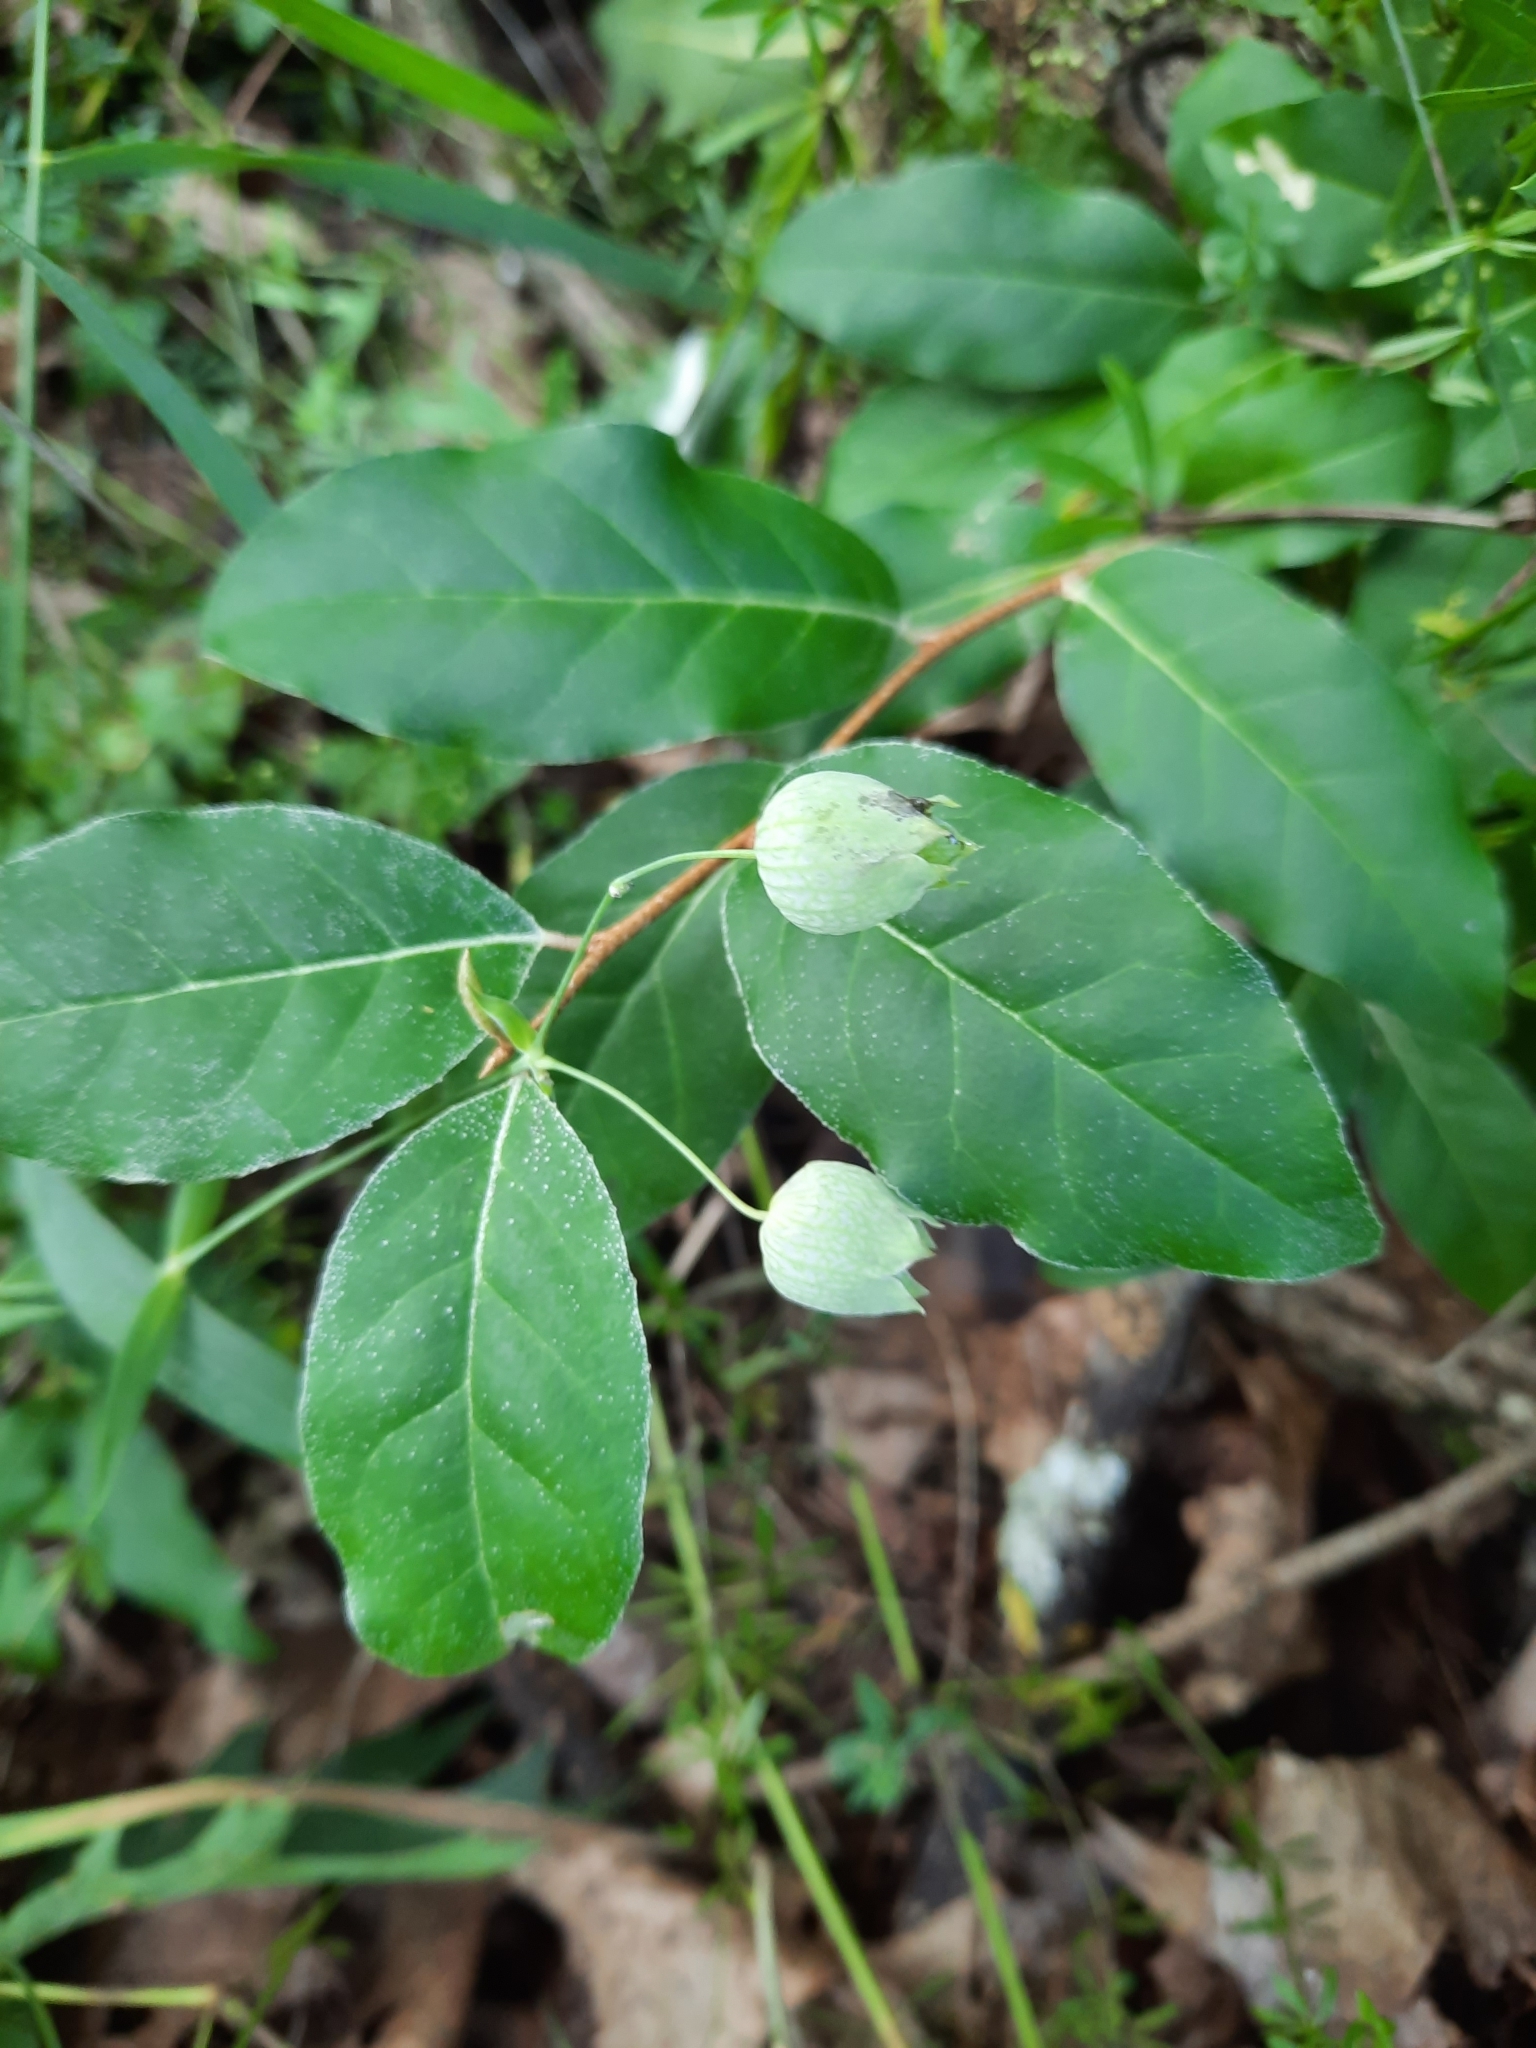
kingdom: Plantae
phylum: Tracheophyta
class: Magnoliopsida
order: Rosales
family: Elaeagnaceae
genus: Elaeagnus
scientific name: Elaeagnus umbellata
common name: Autumn olive
